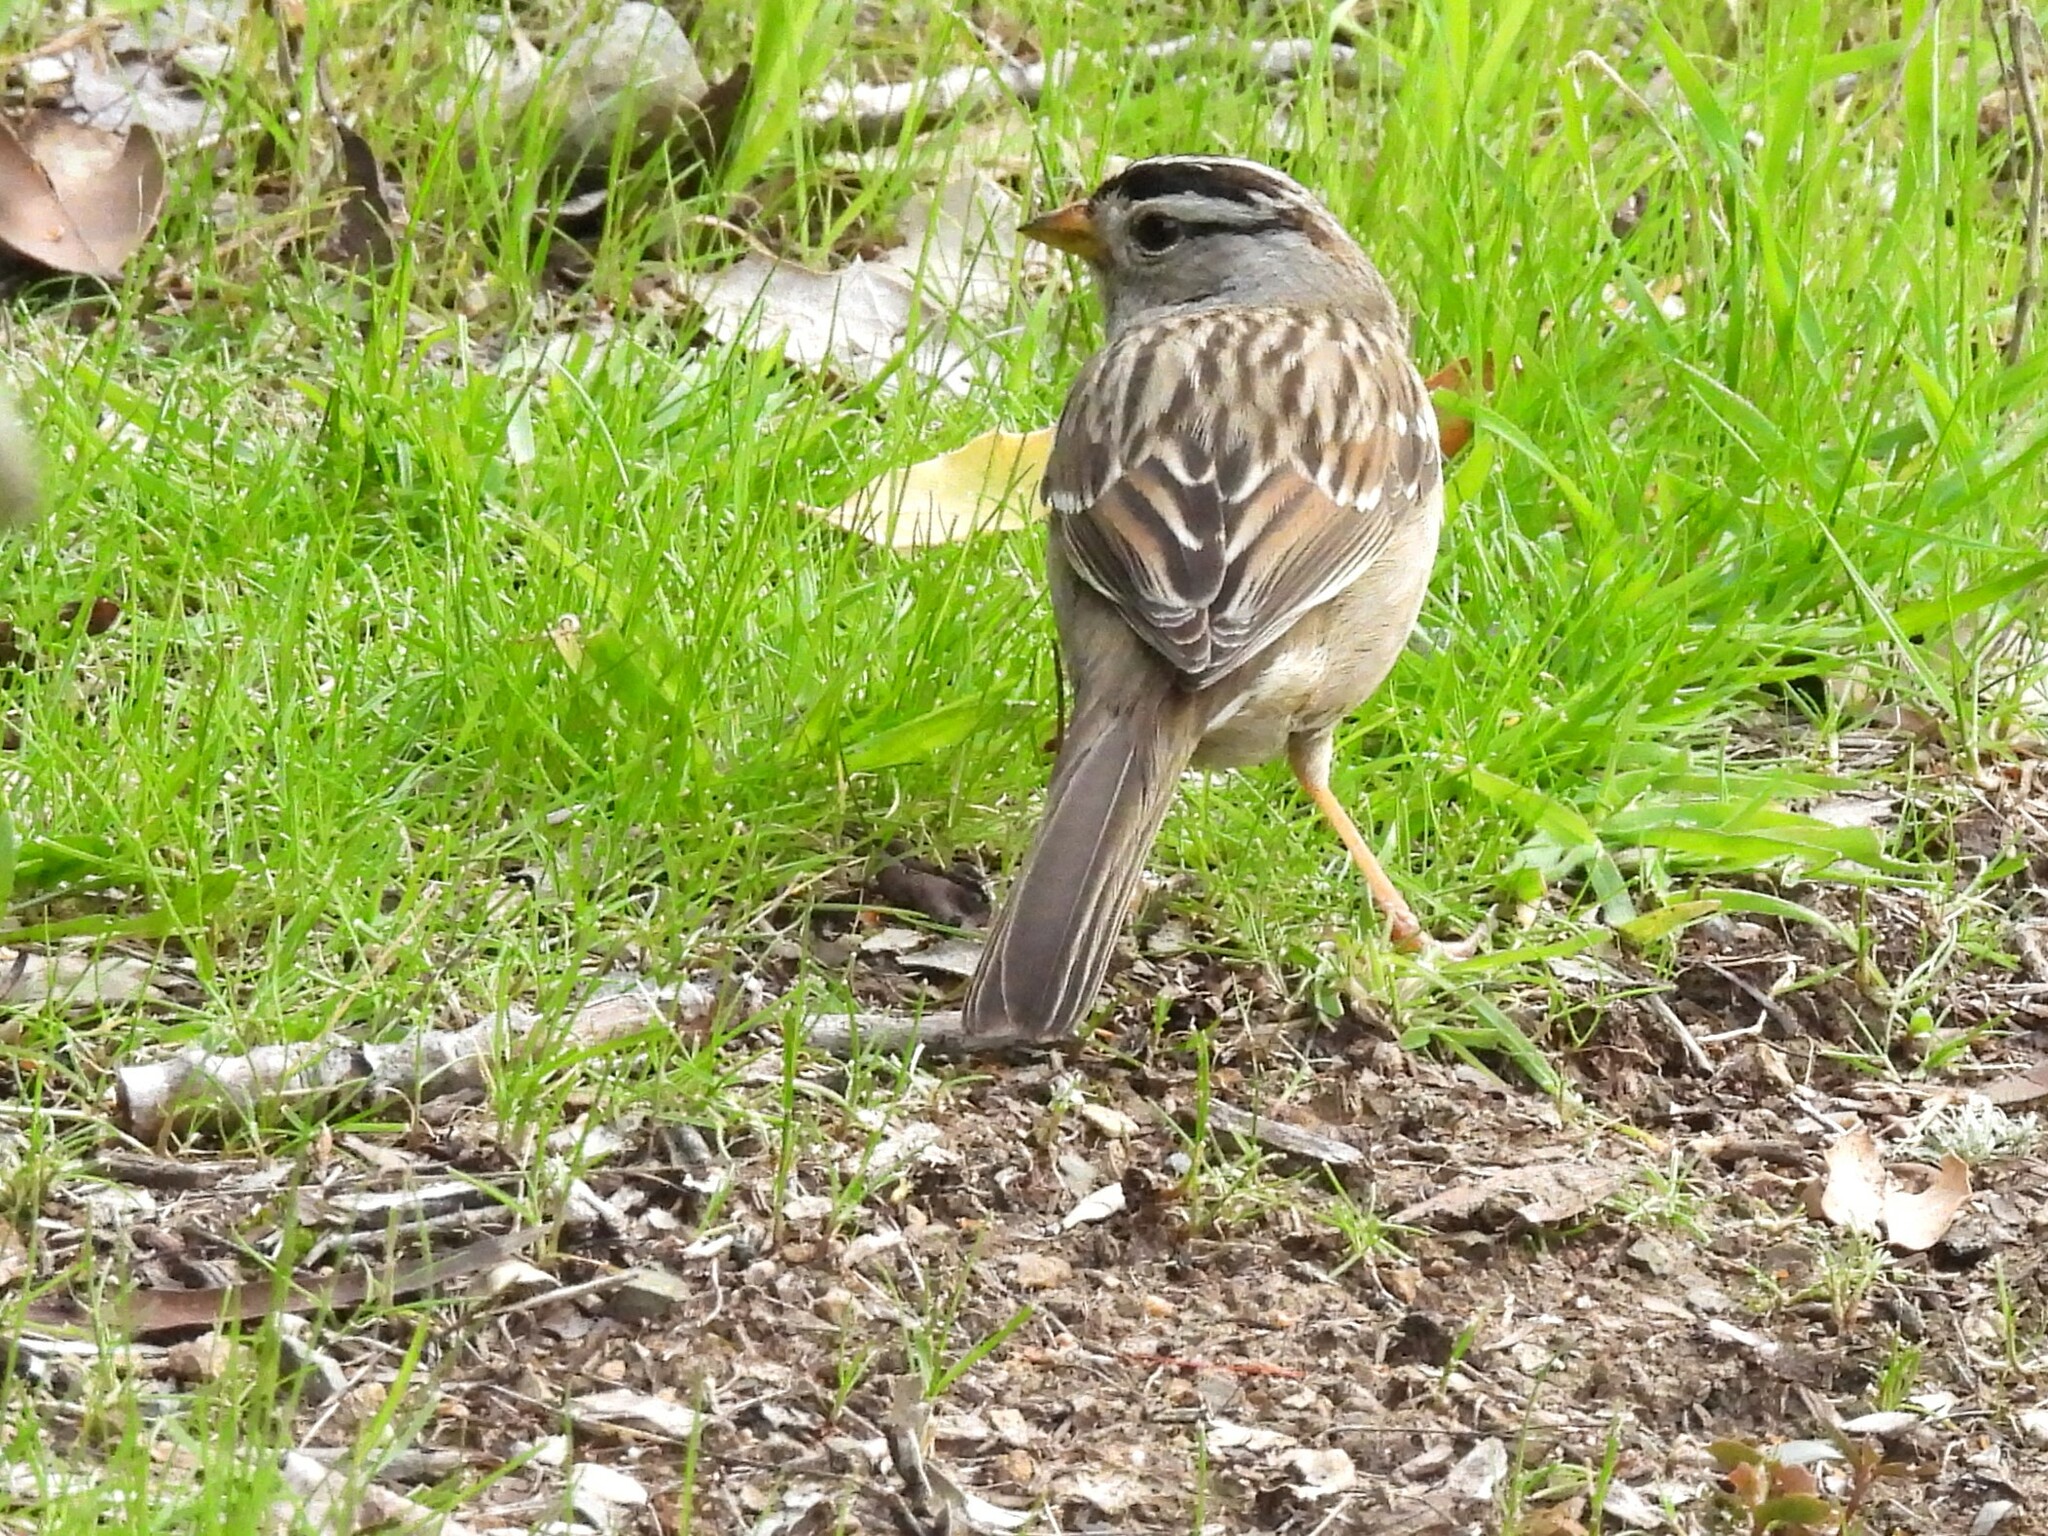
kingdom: Animalia
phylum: Chordata
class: Aves
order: Passeriformes
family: Passerellidae
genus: Zonotrichia
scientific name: Zonotrichia leucophrys
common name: White-crowned sparrow
